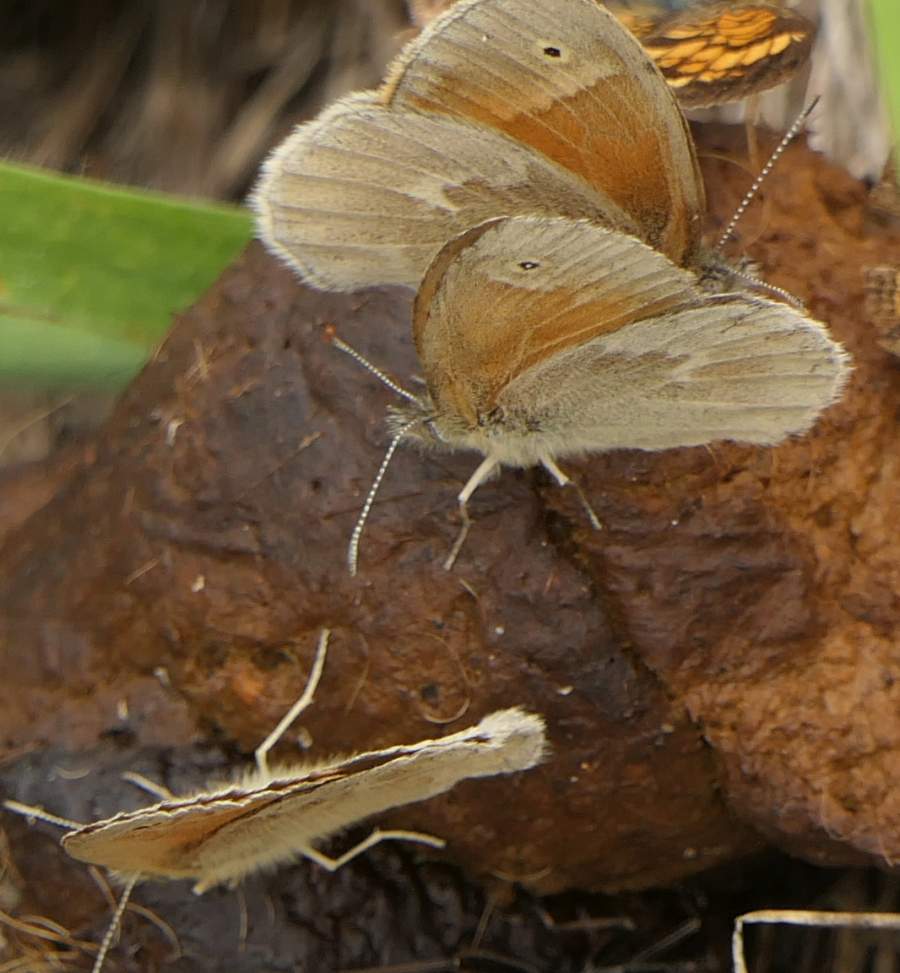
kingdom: Animalia
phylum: Arthropoda
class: Insecta
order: Lepidoptera
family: Nymphalidae
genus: Coenonympha
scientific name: Coenonympha california
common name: Common ringlet
